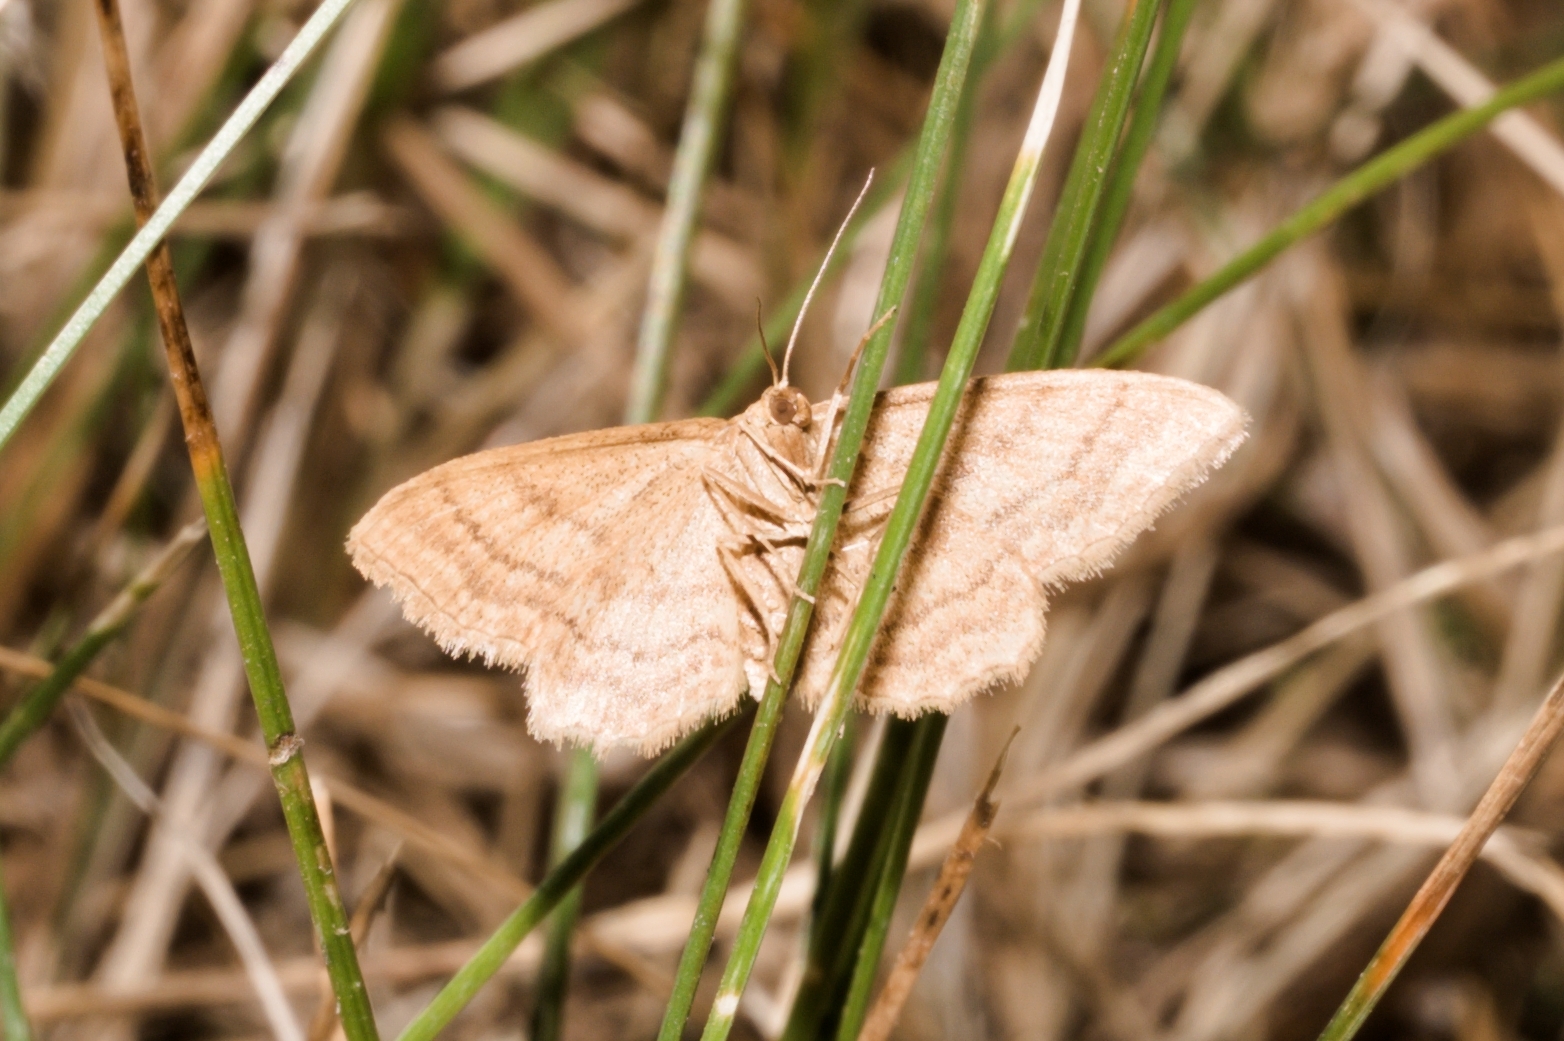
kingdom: Animalia
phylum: Arthropoda
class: Insecta
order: Lepidoptera
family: Geometridae
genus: Idaea
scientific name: Idaea ochrata
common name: Bright wave
